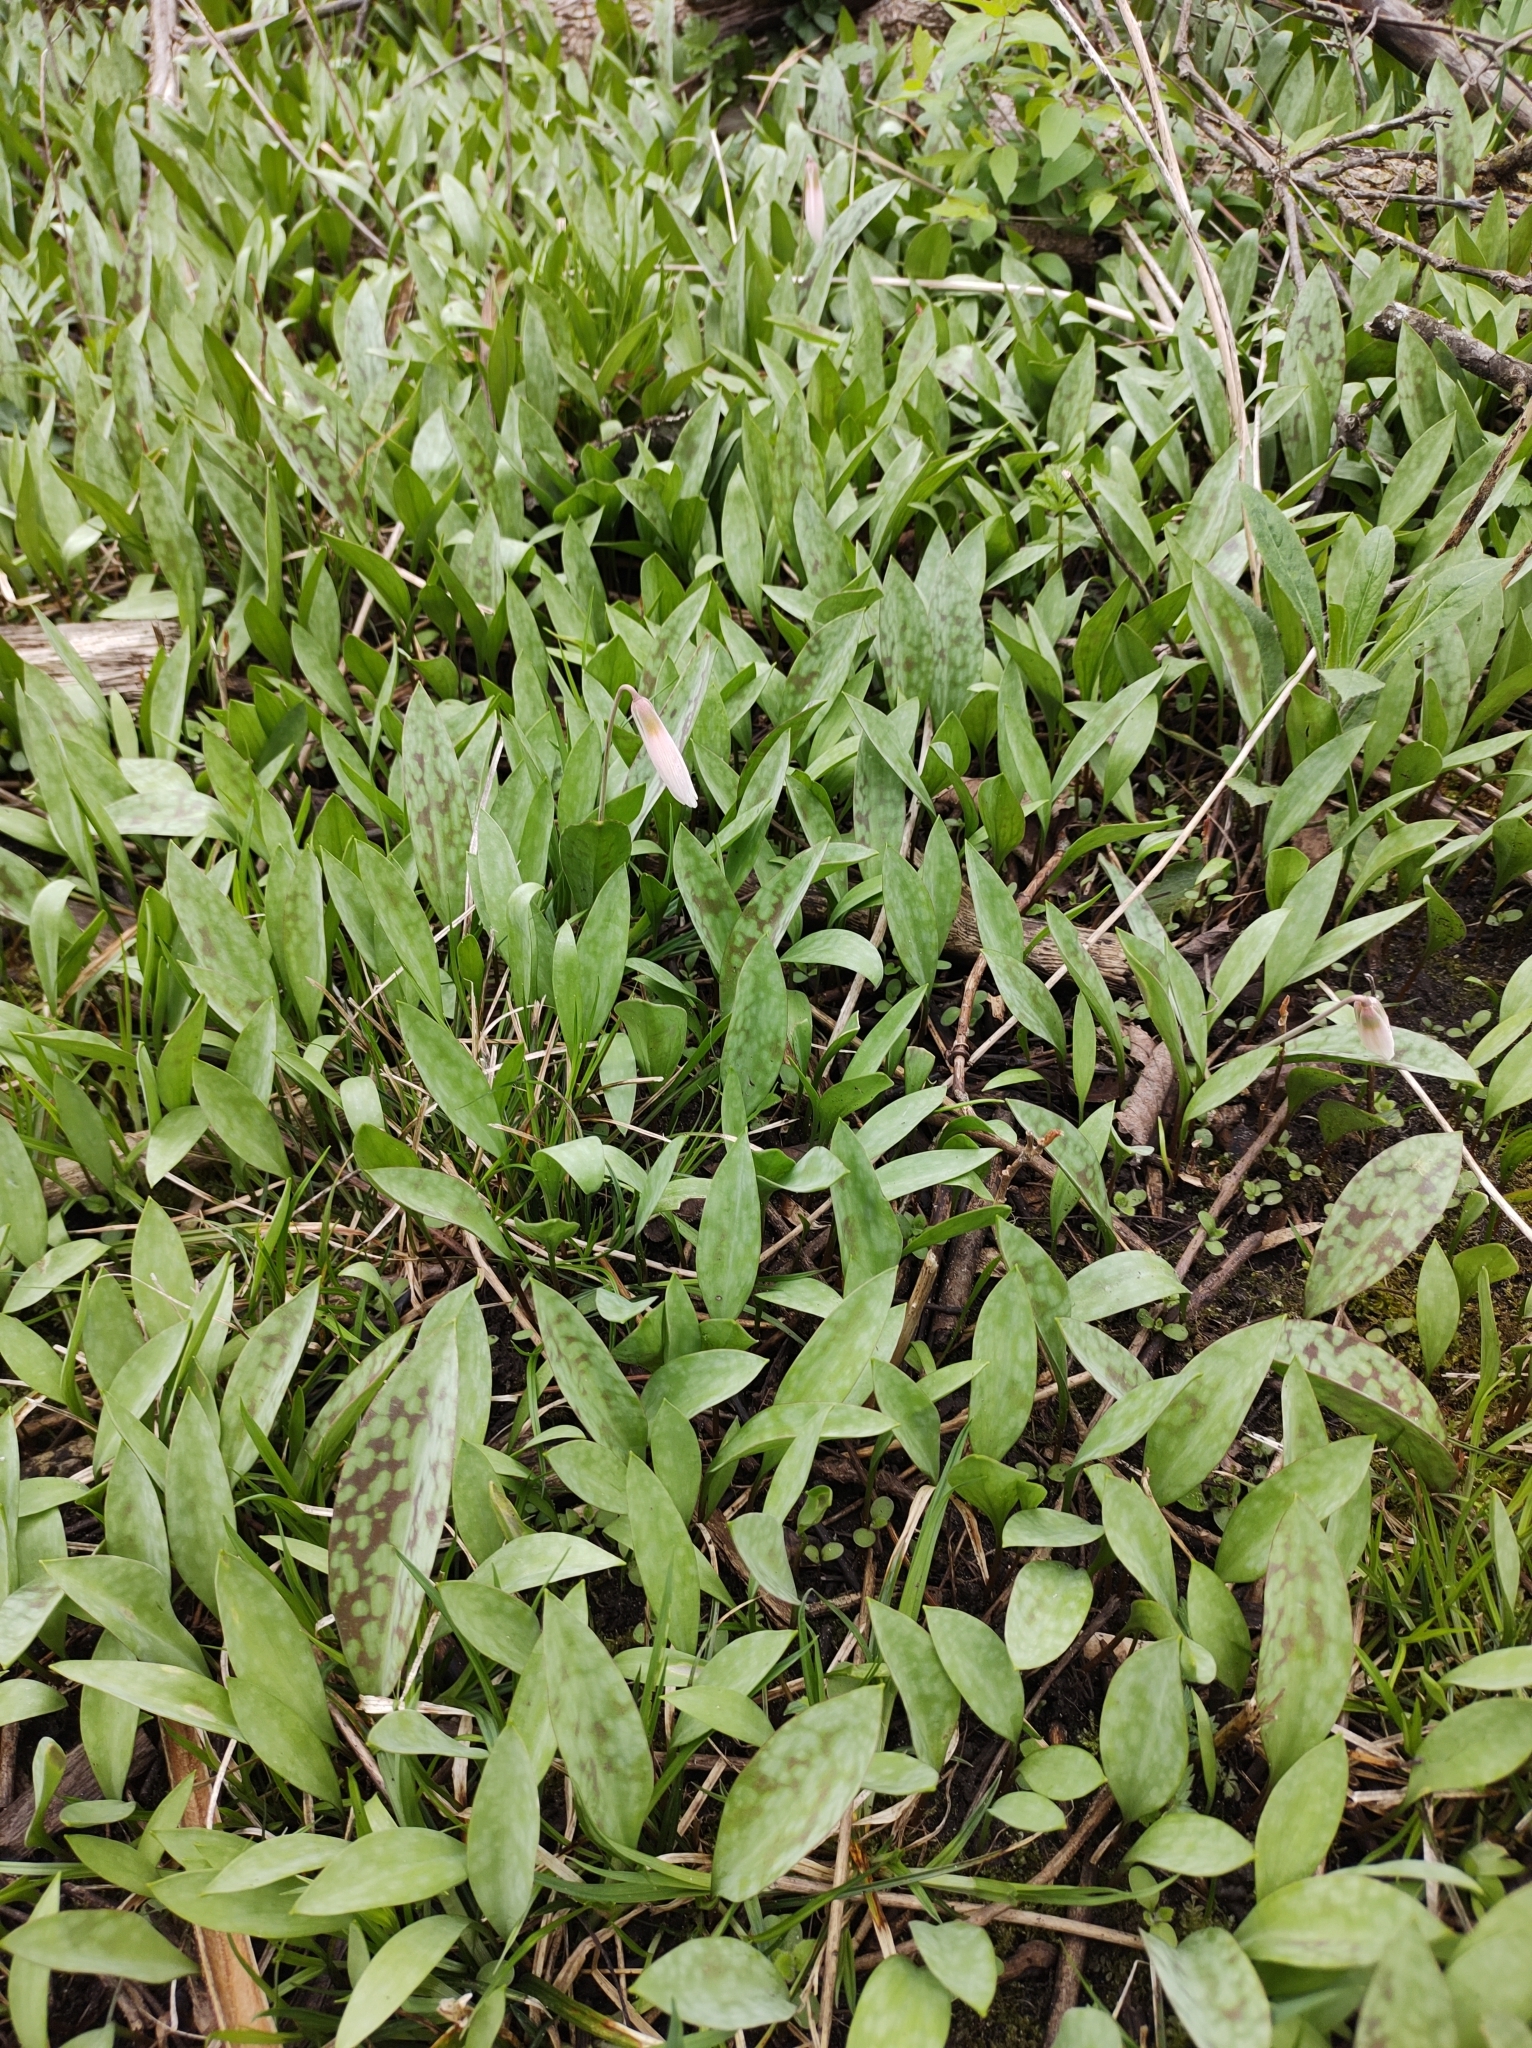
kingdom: Plantae
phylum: Tracheophyta
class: Liliopsida
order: Liliales
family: Liliaceae
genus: Erythronium
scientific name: Erythronium albidum
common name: White trout-lily
